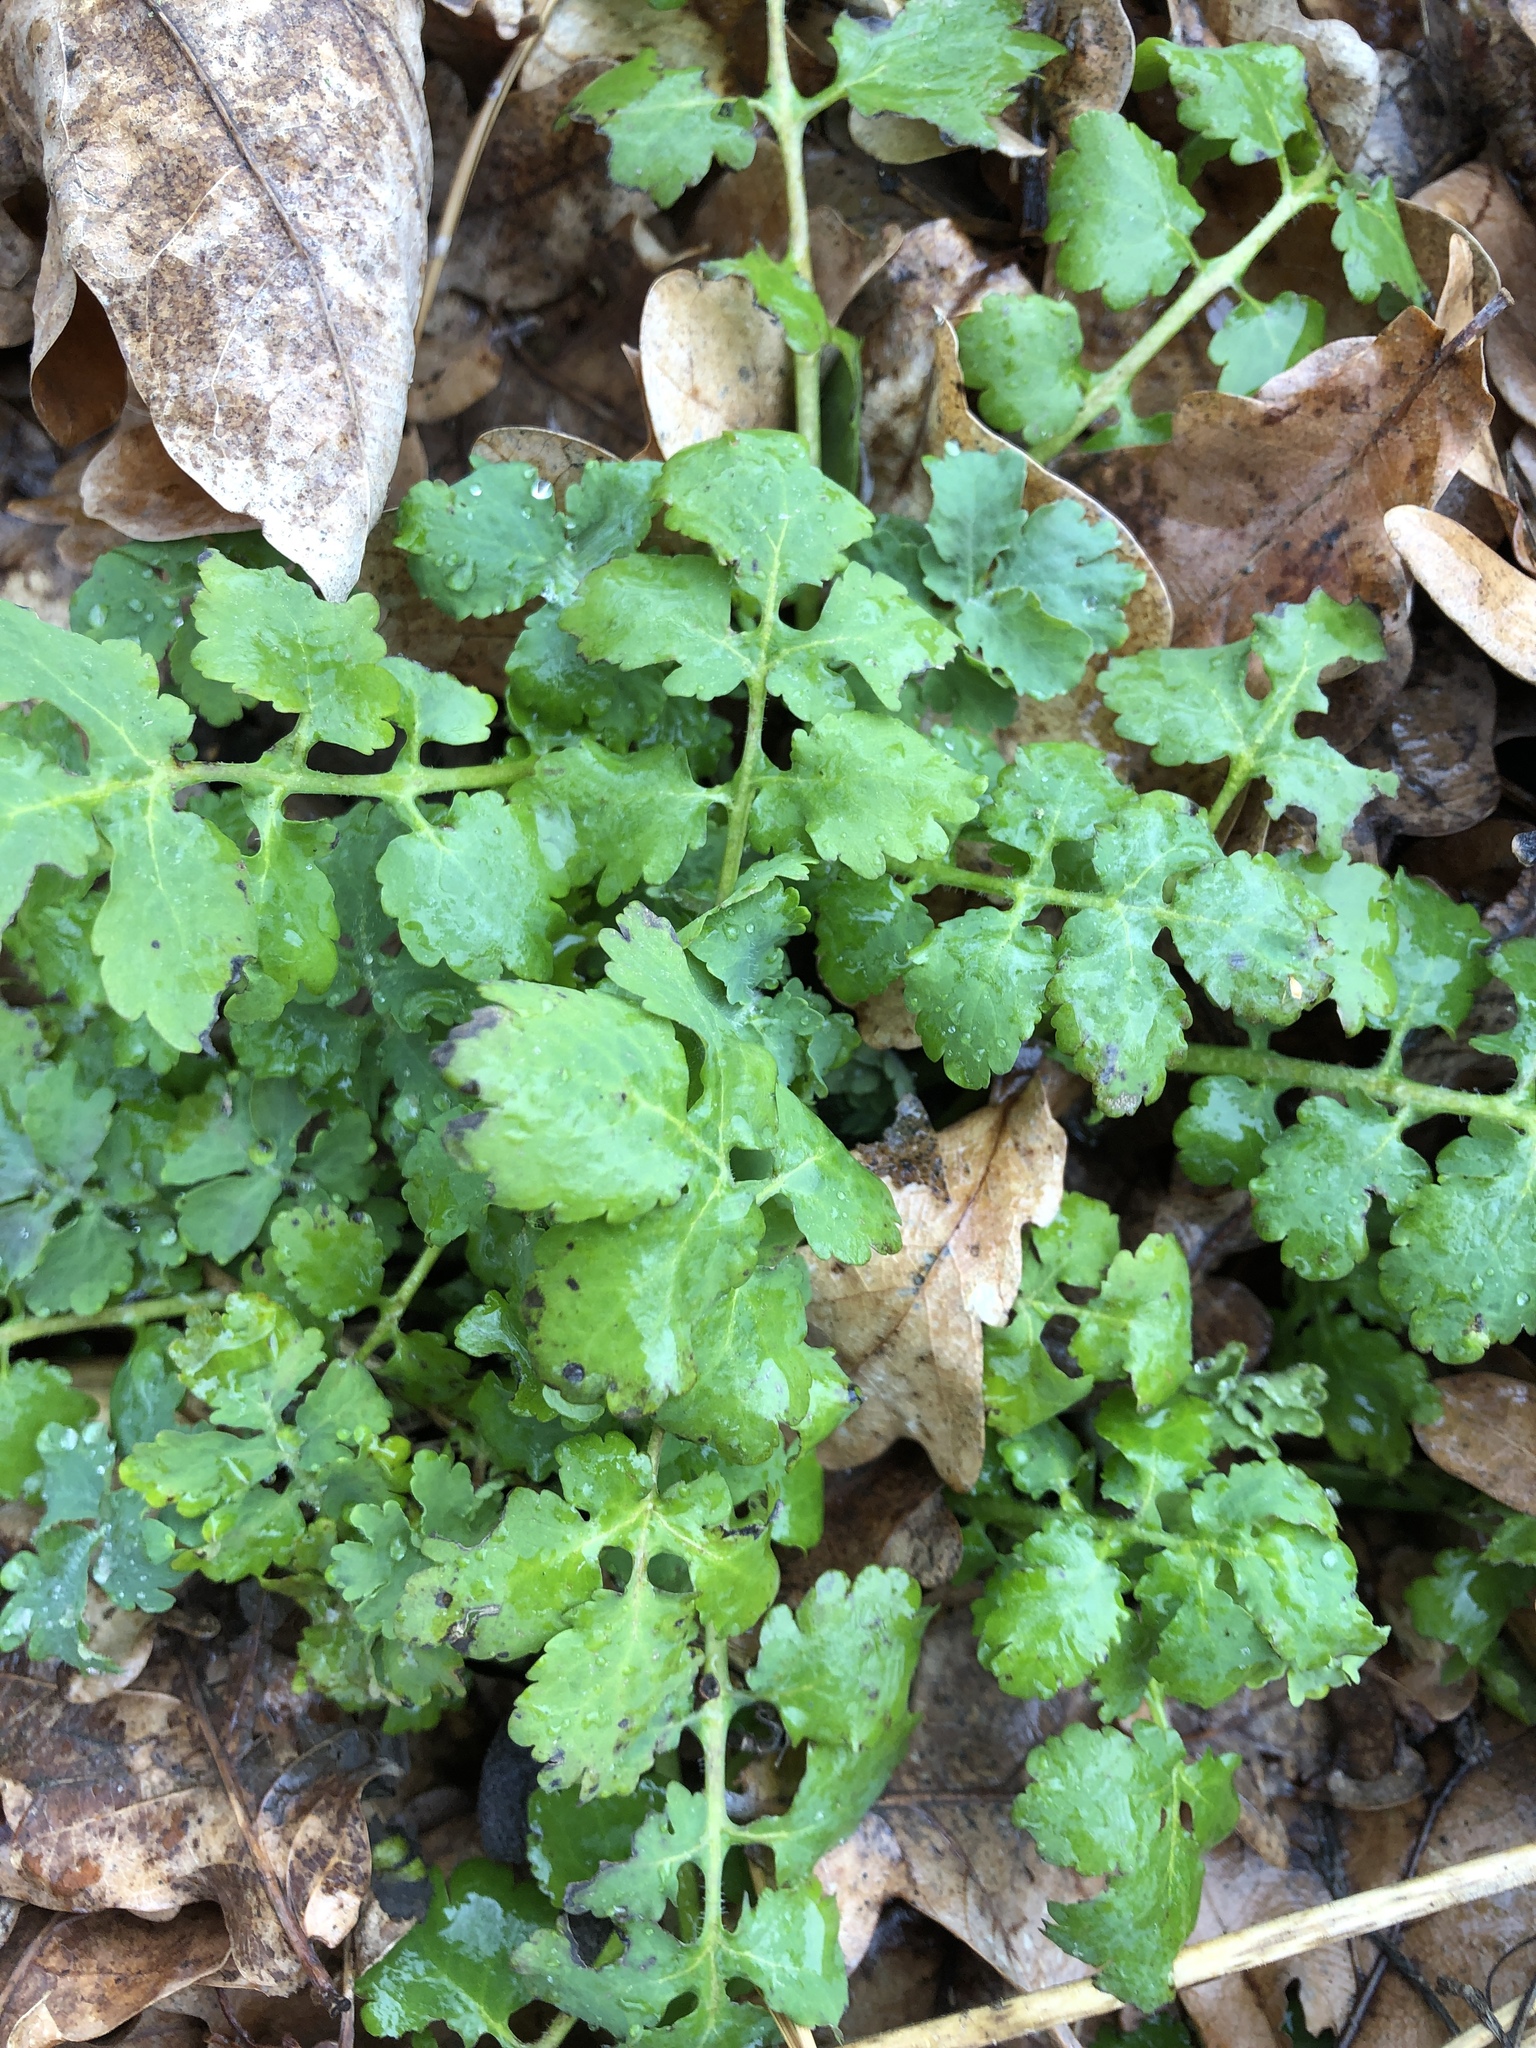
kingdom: Plantae
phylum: Tracheophyta
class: Magnoliopsida
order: Ranunculales
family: Papaveraceae
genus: Chelidonium
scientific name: Chelidonium majus
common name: Greater celandine
